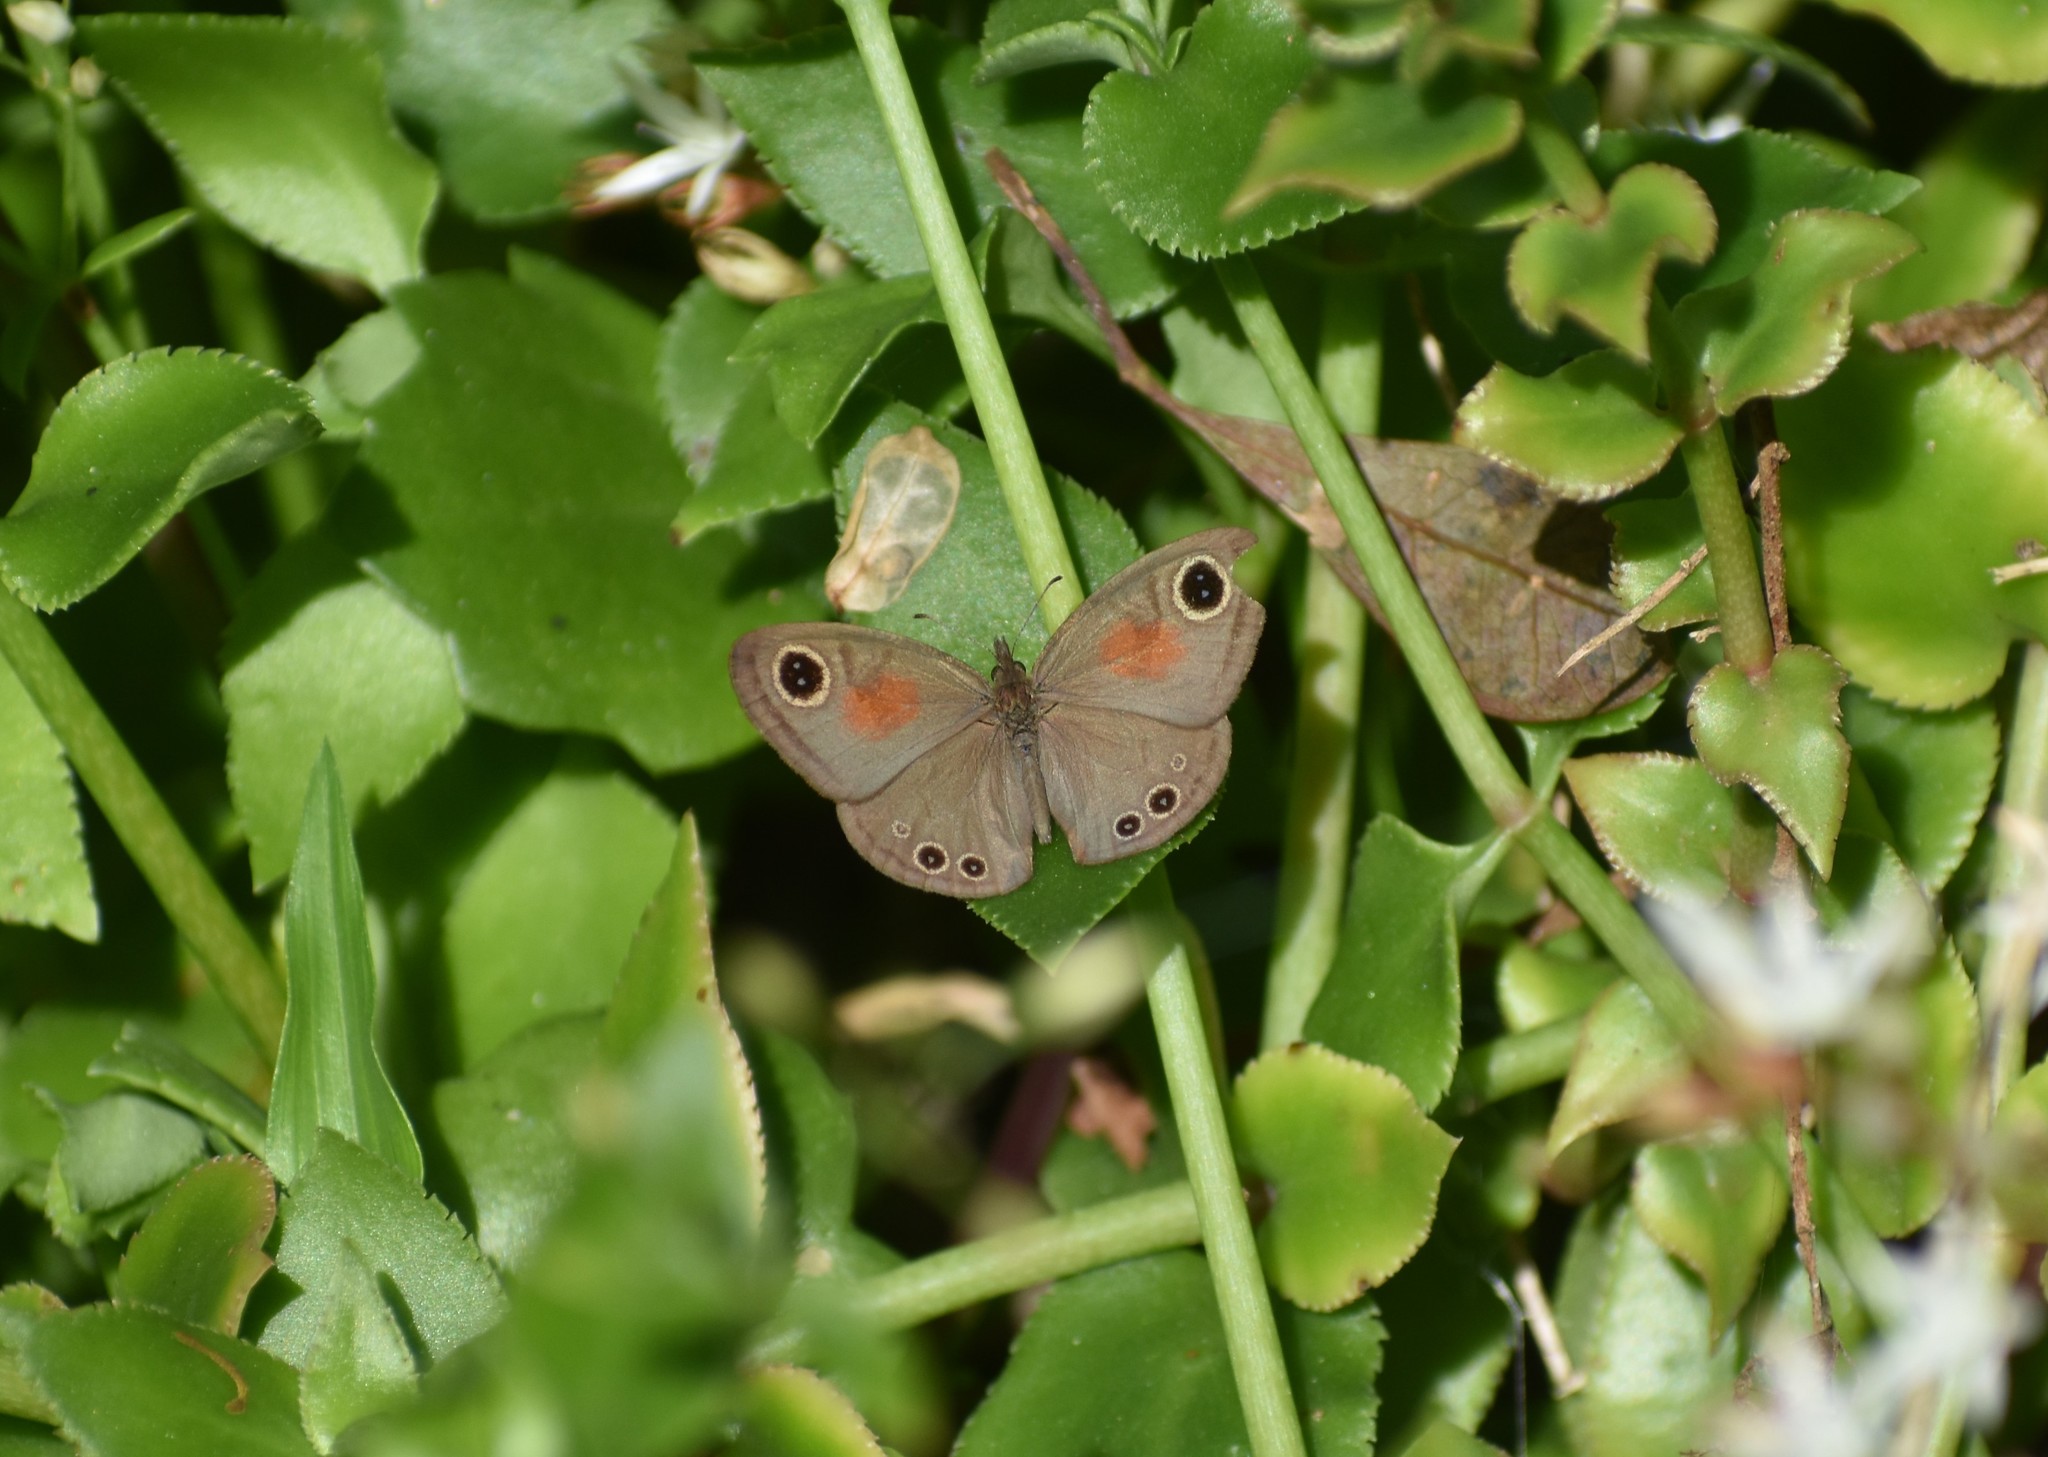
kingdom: Animalia
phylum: Arthropoda
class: Insecta
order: Lepidoptera
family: Nymphalidae
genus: Cassionympha
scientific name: Cassionympha cassius
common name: Rainforest brown
